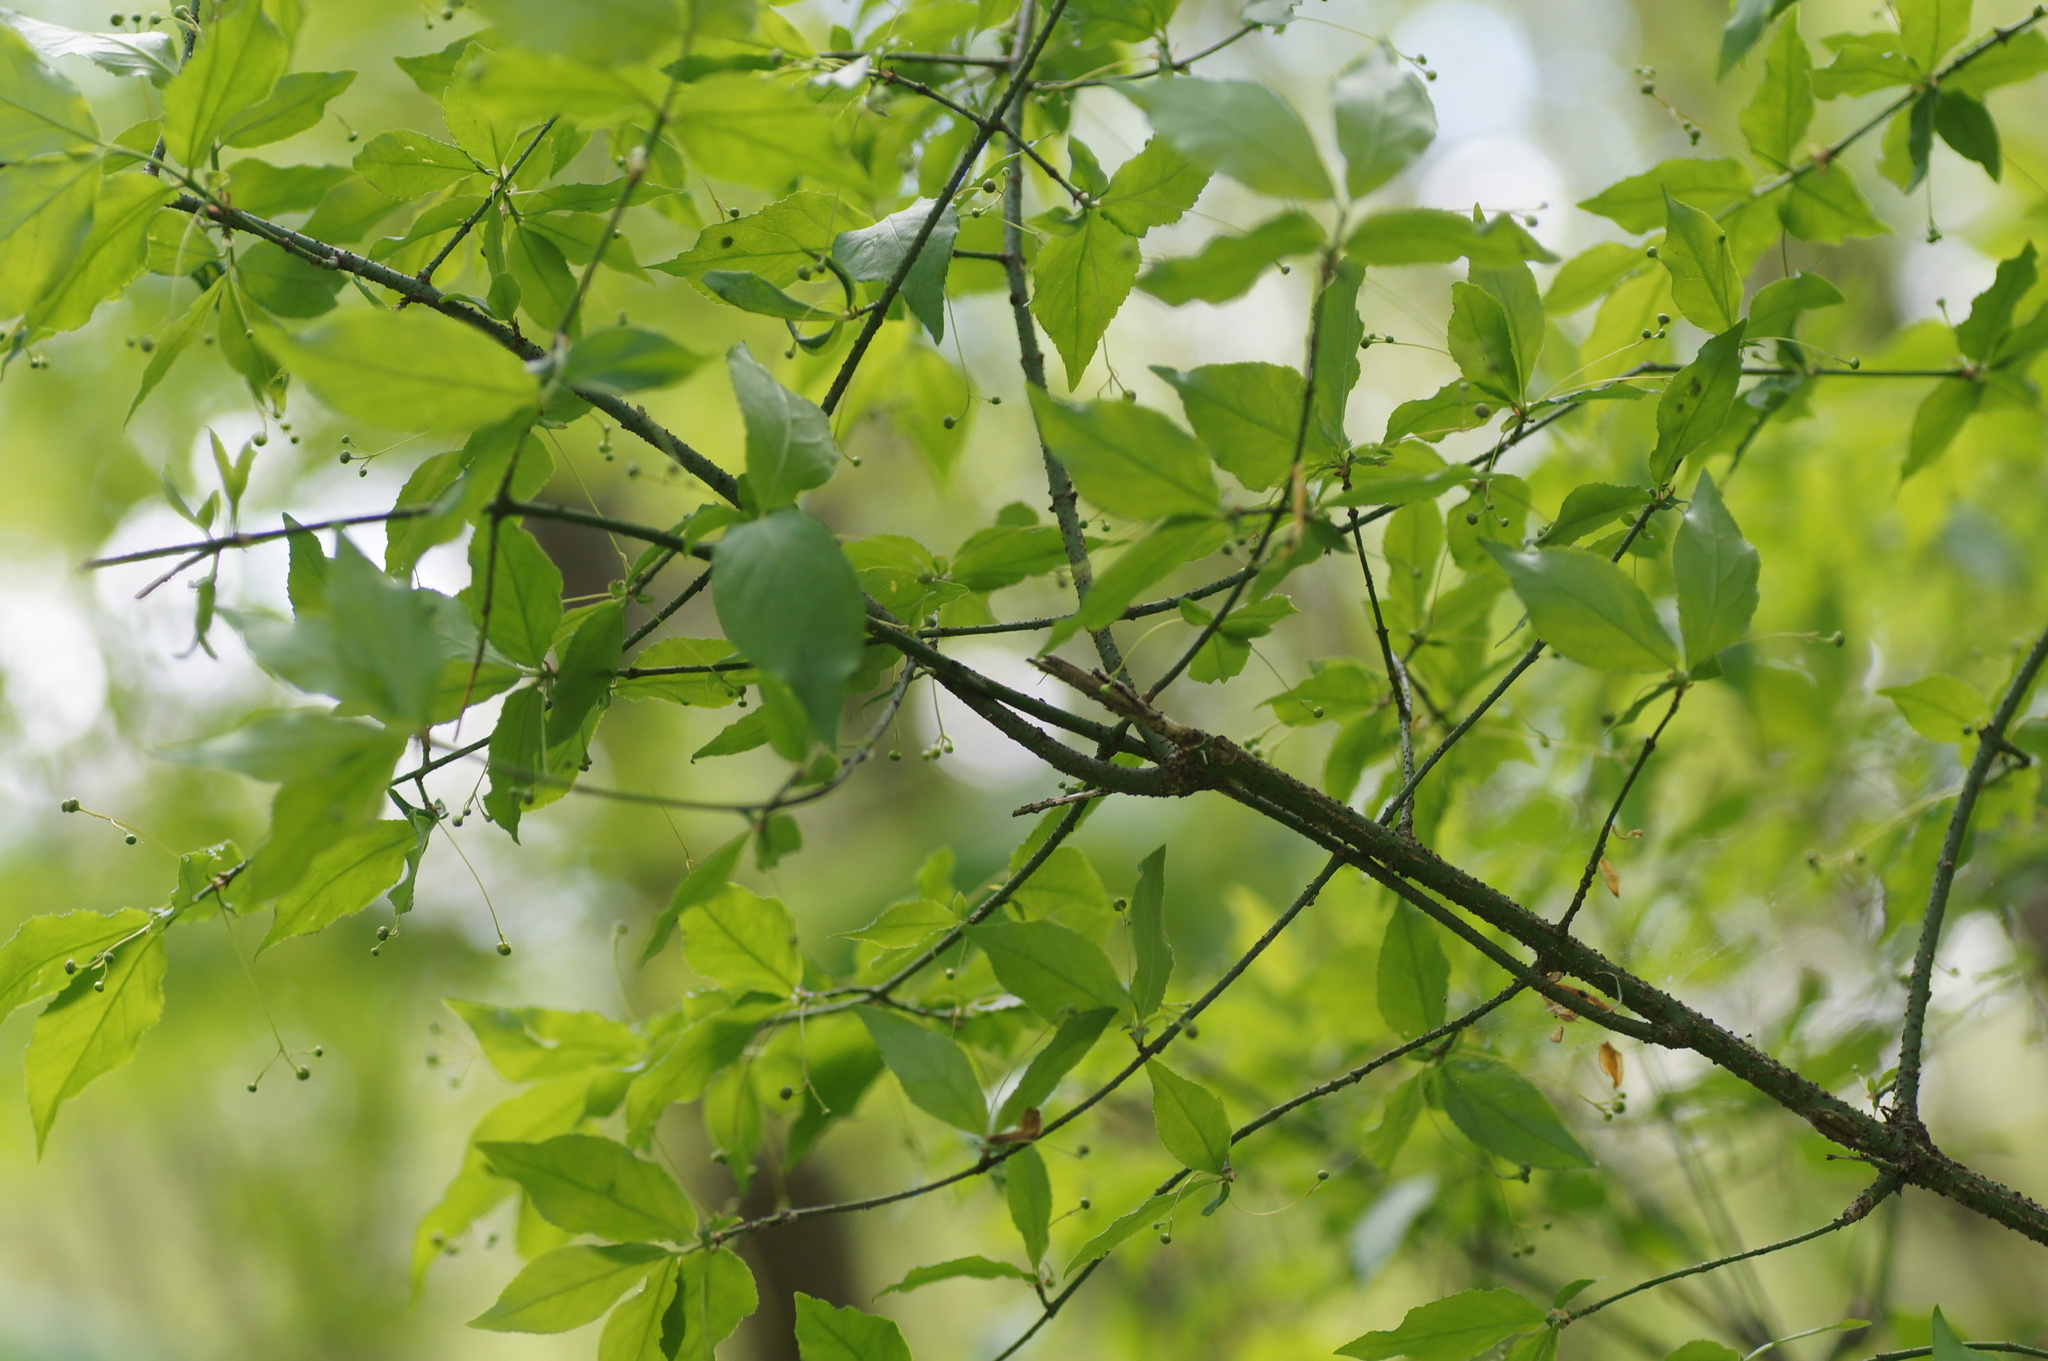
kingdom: Plantae
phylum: Tracheophyta
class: Magnoliopsida
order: Celastrales
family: Celastraceae
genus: Euonymus
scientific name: Euonymus verrucosus
